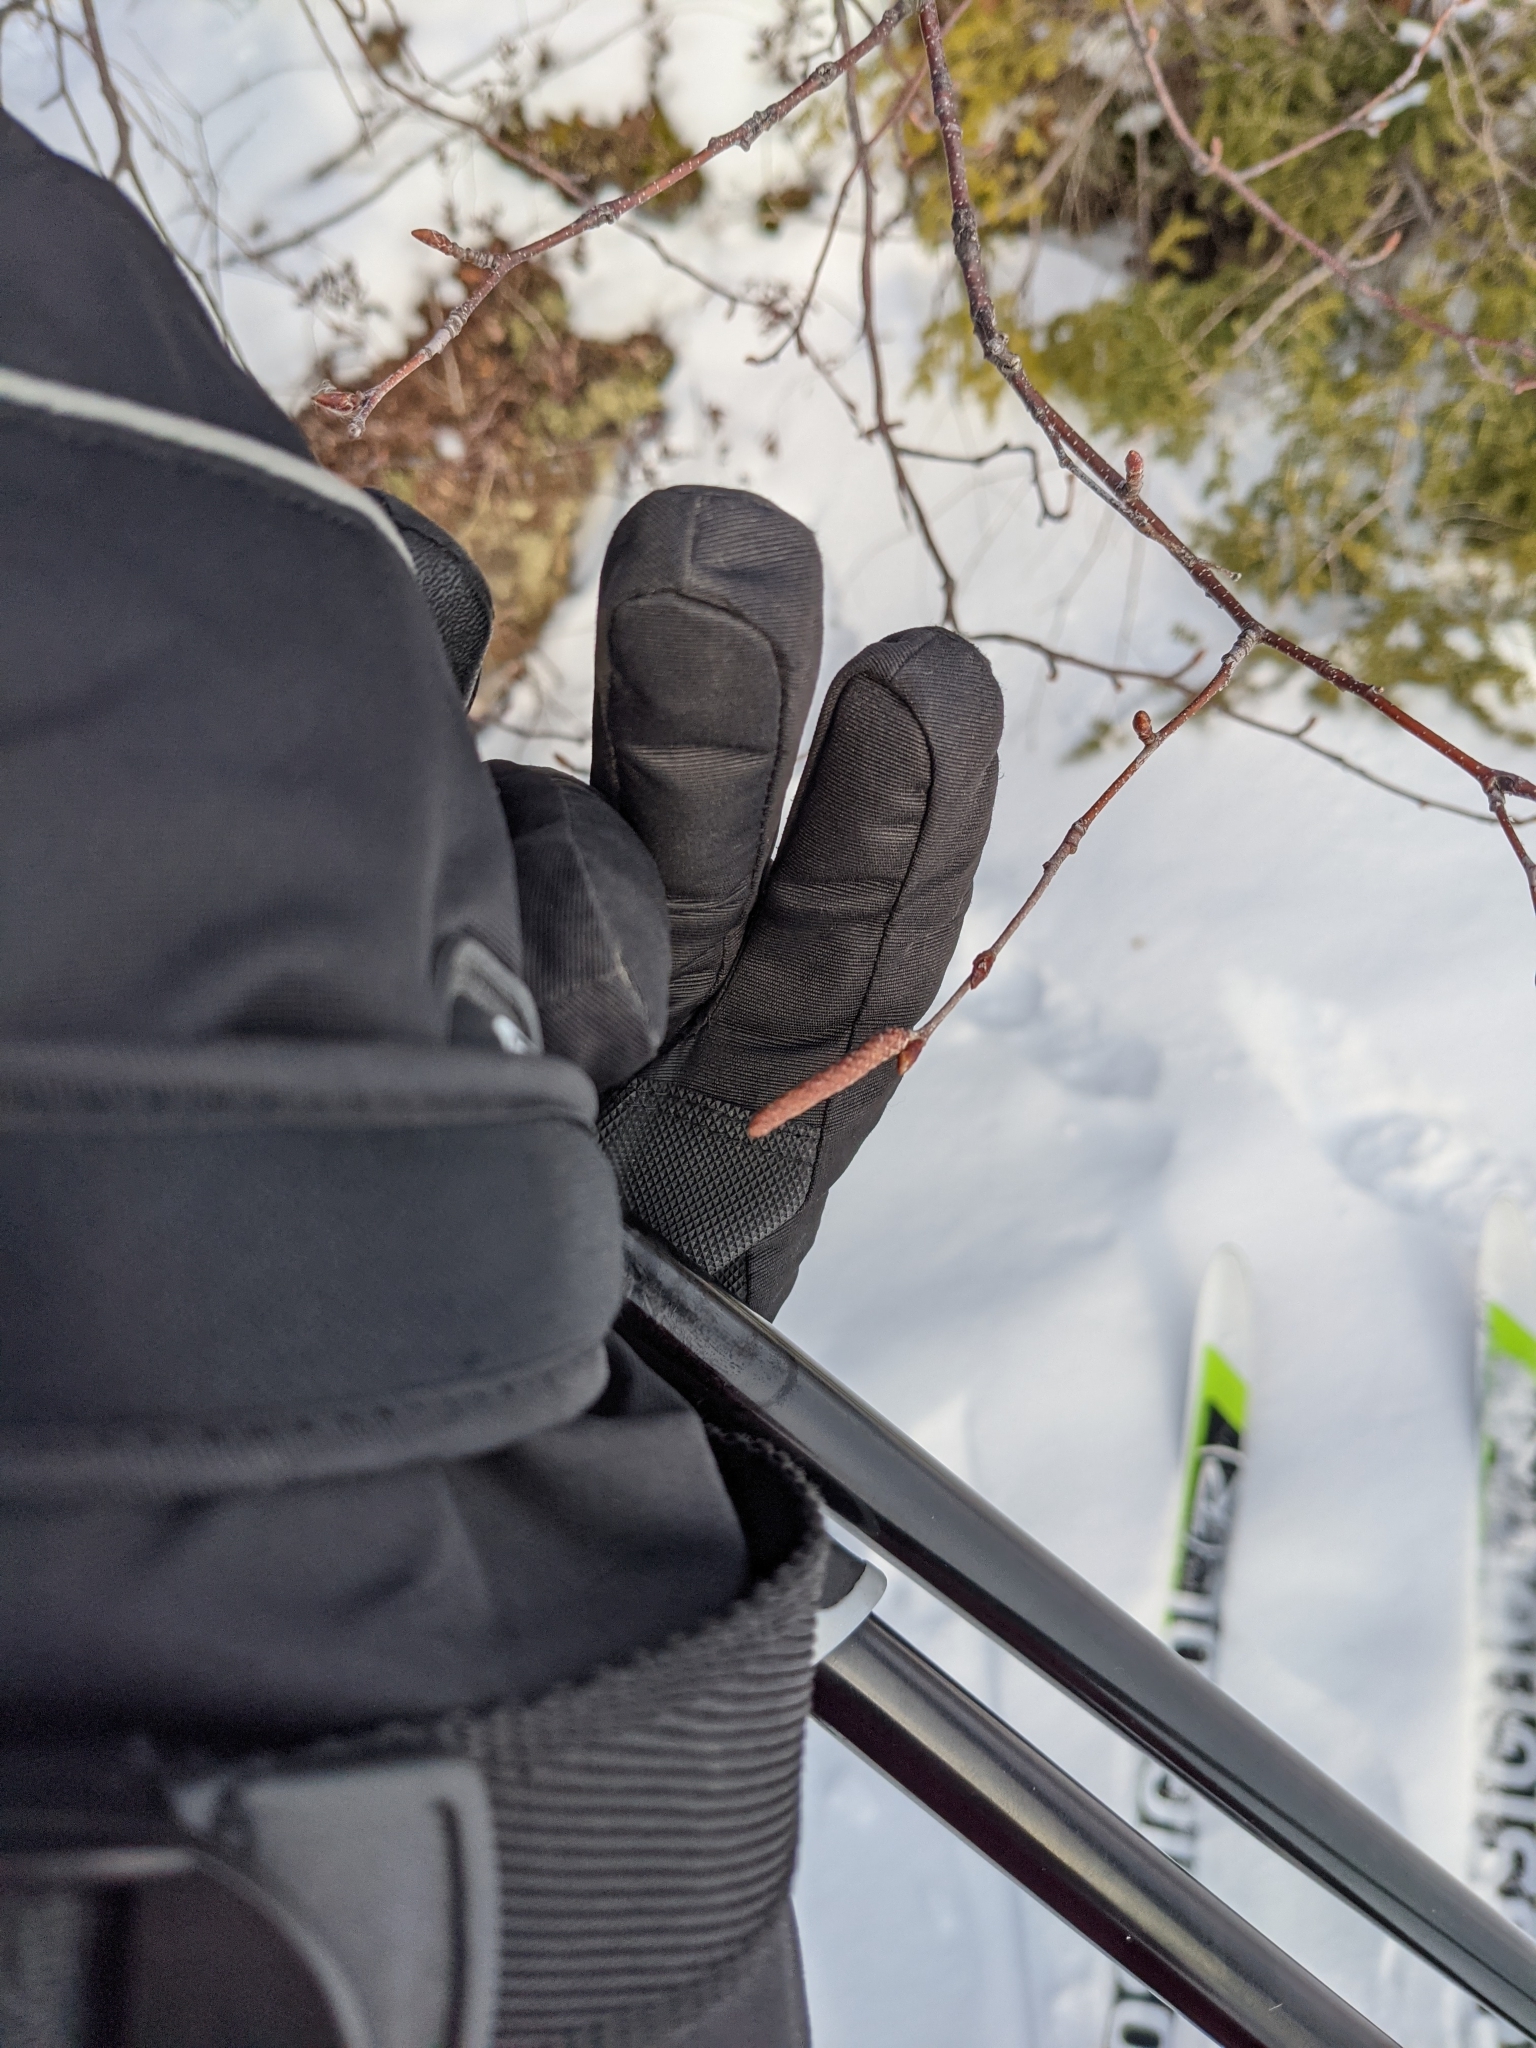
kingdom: Plantae
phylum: Tracheophyta
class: Magnoliopsida
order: Fagales
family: Betulaceae
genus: Betula
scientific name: Betula populifolia
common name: Fire birch
